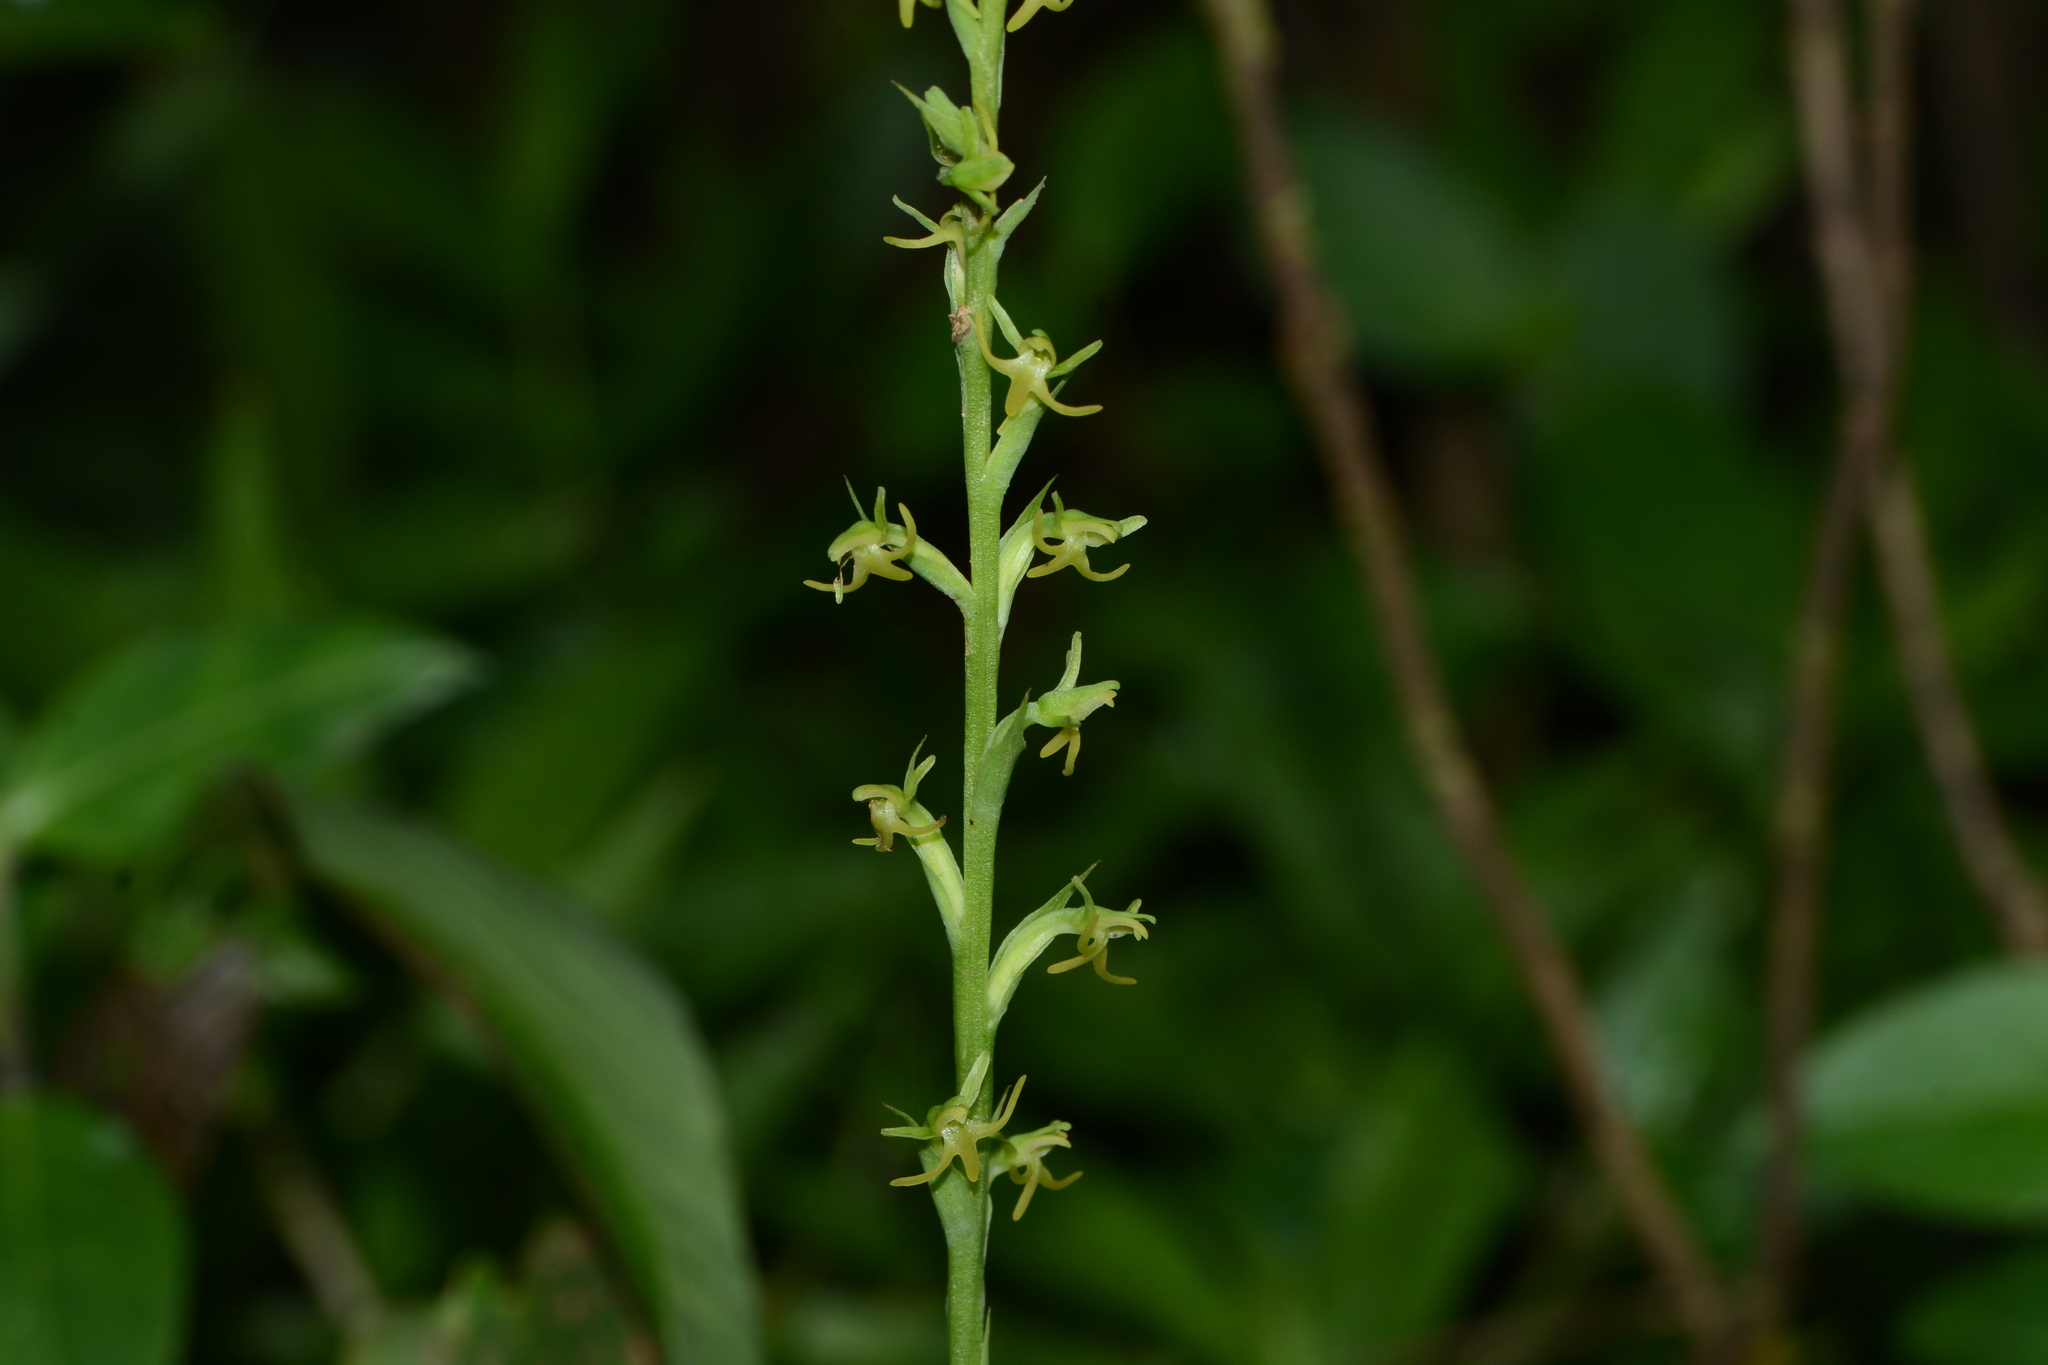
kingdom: Plantae
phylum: Tracheophyta
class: Liliopsida
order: Asparagales
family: Orchidaceae
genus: Peristylus
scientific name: Peristylus densus
